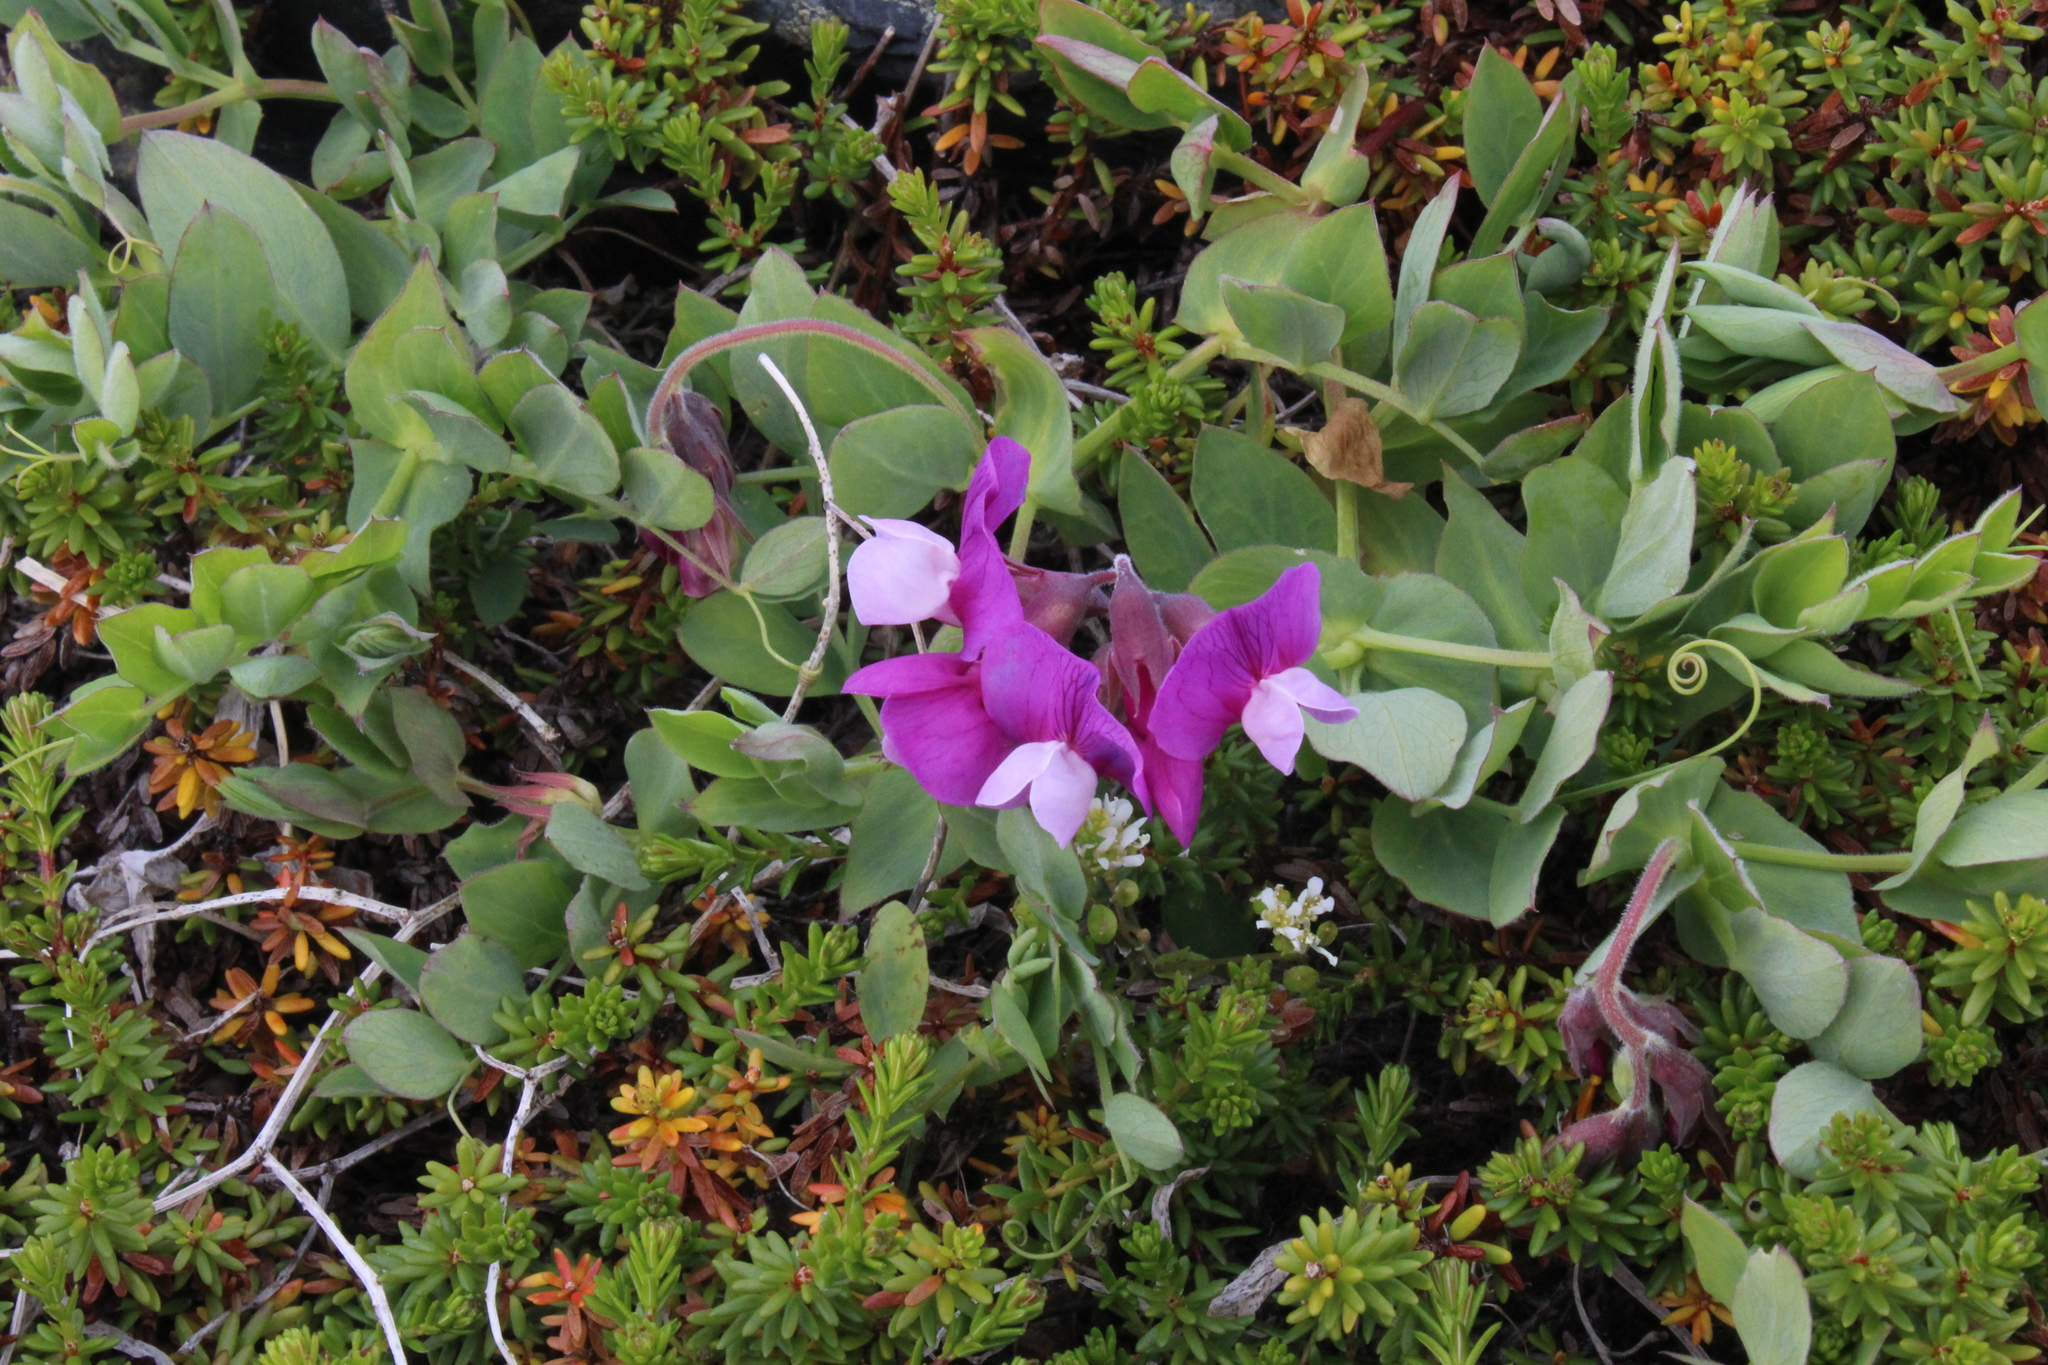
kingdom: Plantae
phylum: Tracheophyta
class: Magnoliopsida
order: Fabales
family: Fabaceae
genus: Lathyrus
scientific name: Lathyrus japonicus
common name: Sea pea
